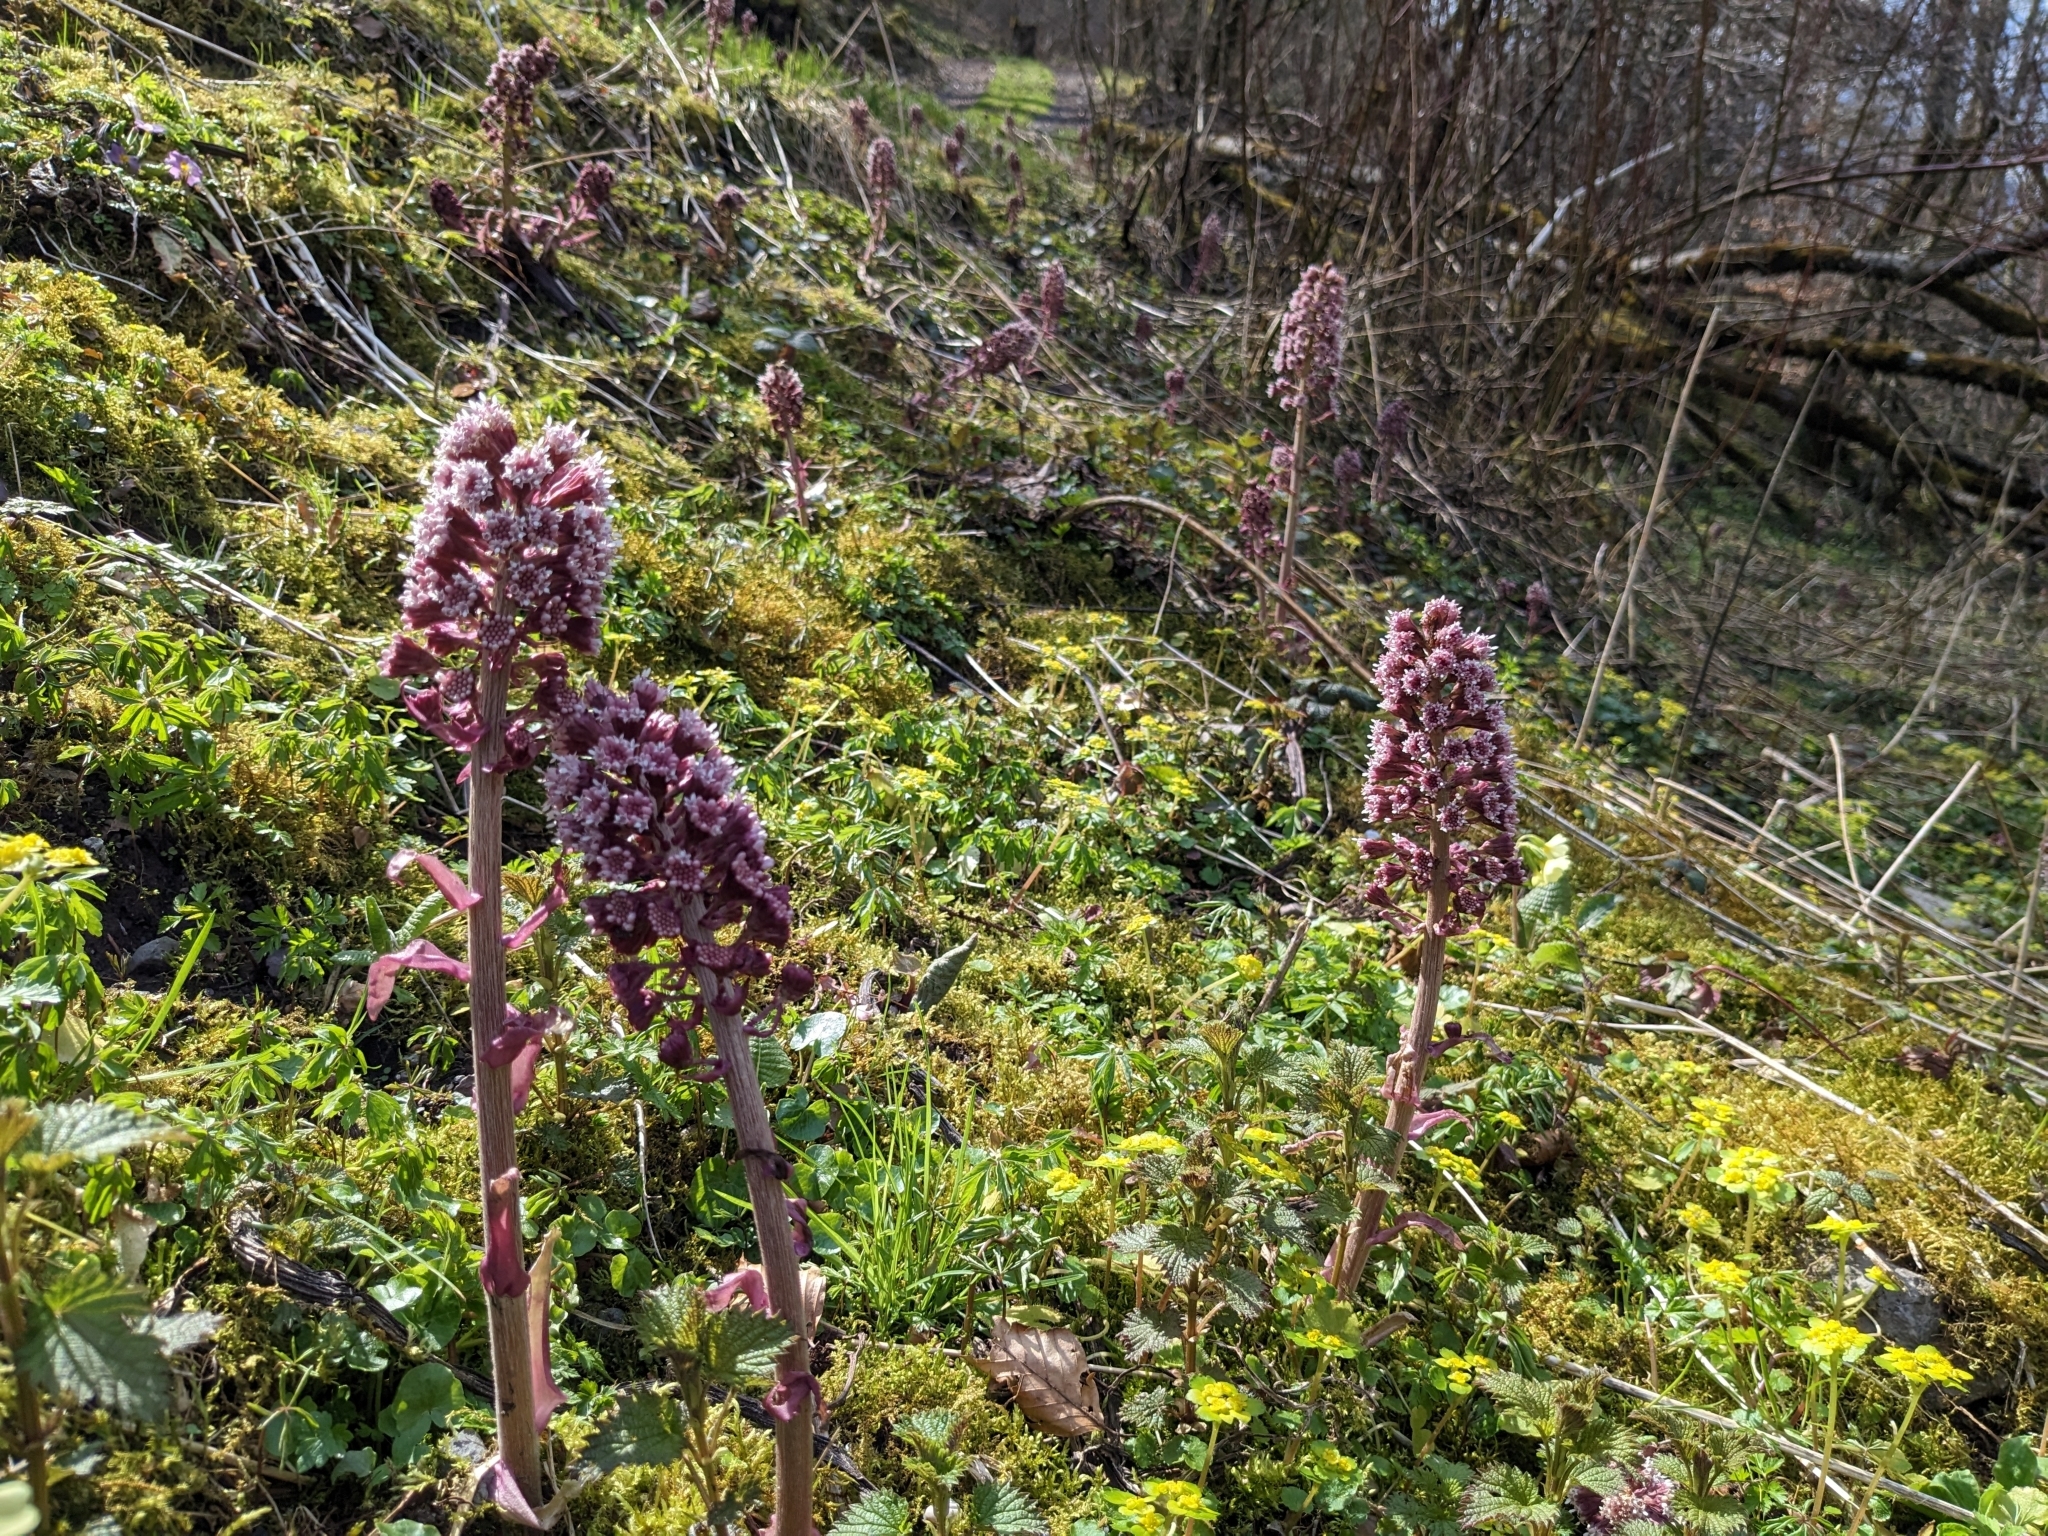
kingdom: Plantae
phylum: Tracheophyta
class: Magnoliopsida
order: Asterales
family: Asteraceae
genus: Petasites
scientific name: Petasites hybridus
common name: Butterbur
